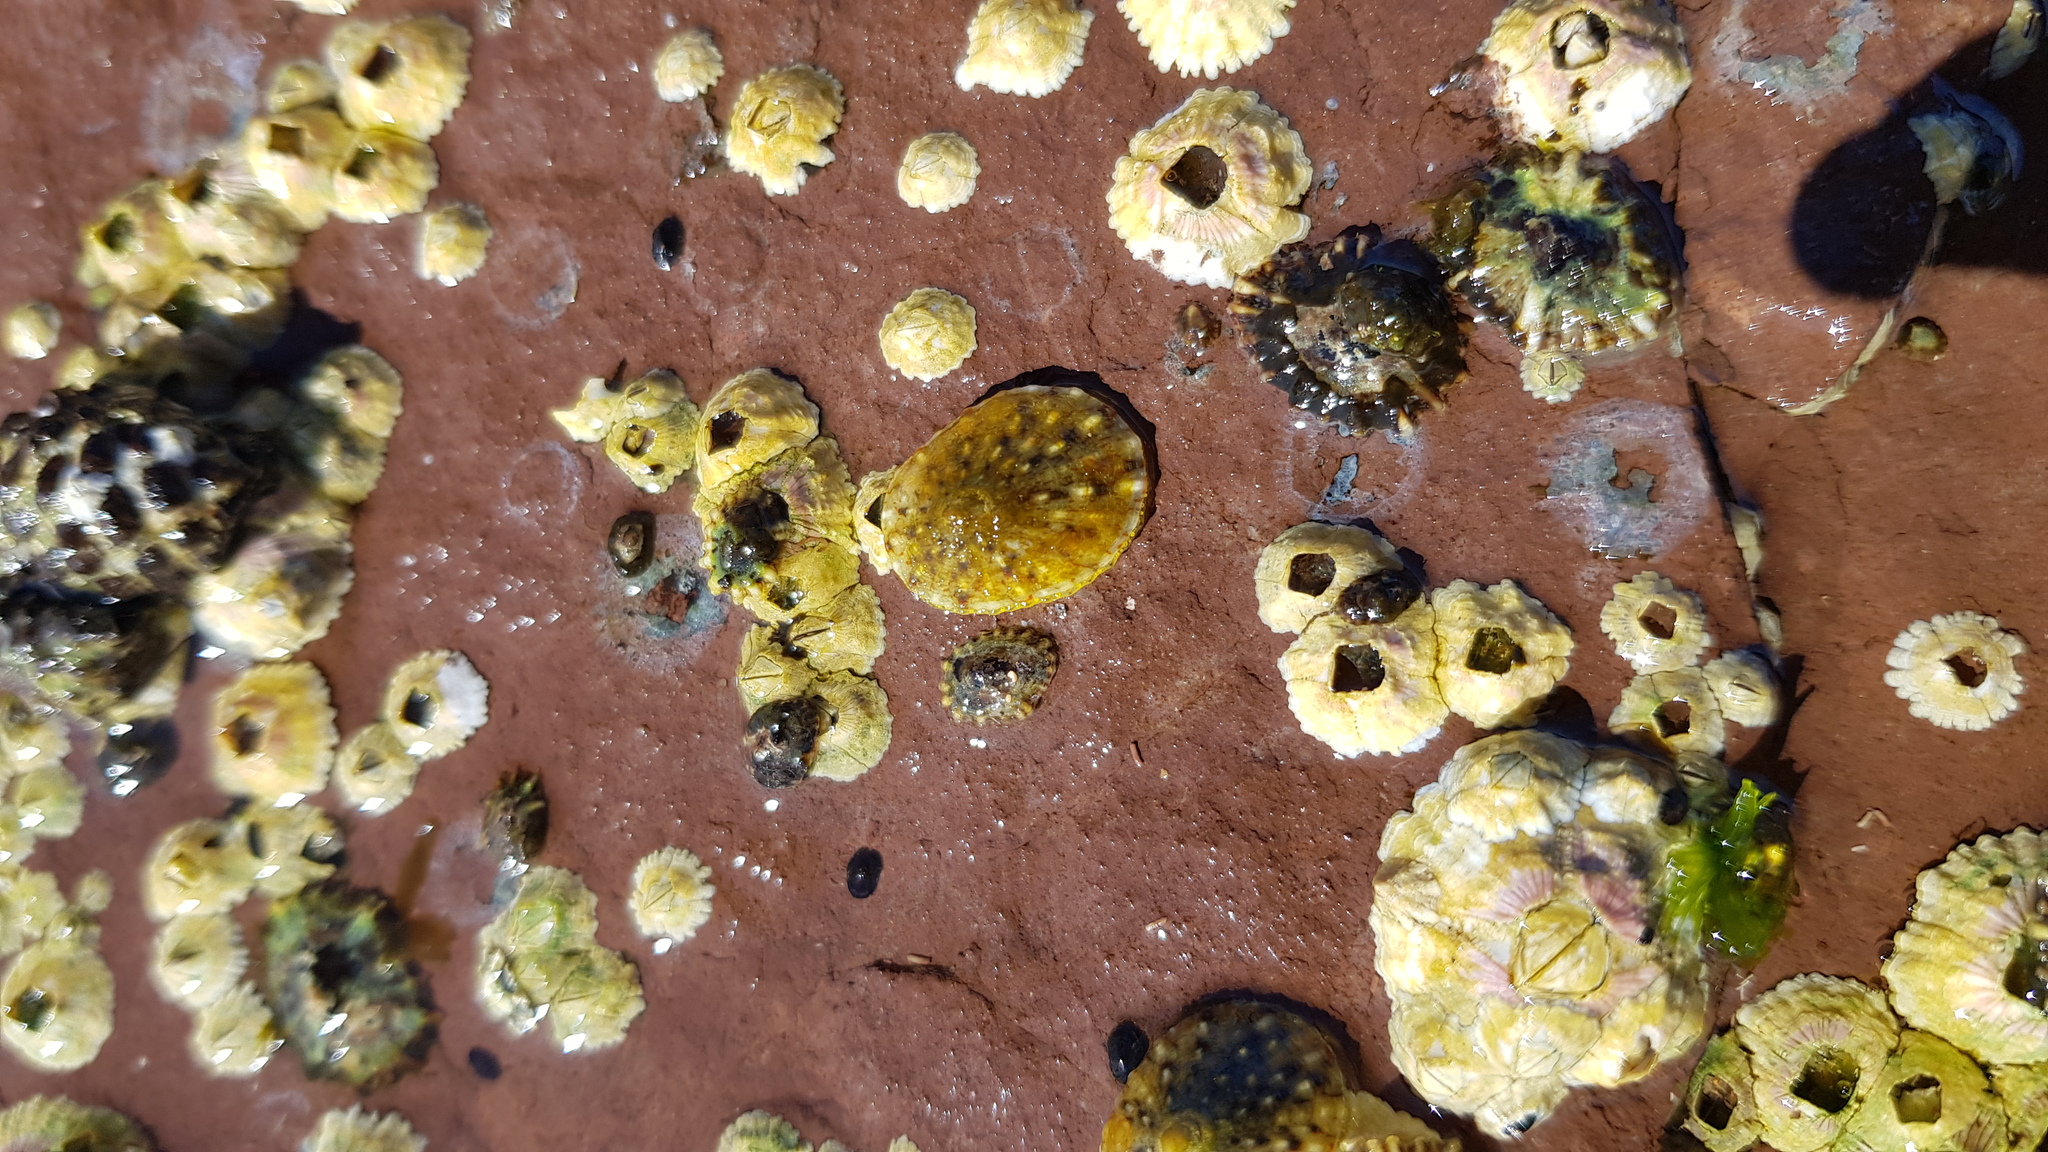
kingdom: Animalia
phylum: Mollusca
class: Gastropoda
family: Nacellidae
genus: Cellana
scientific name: Cellana tramoserica
